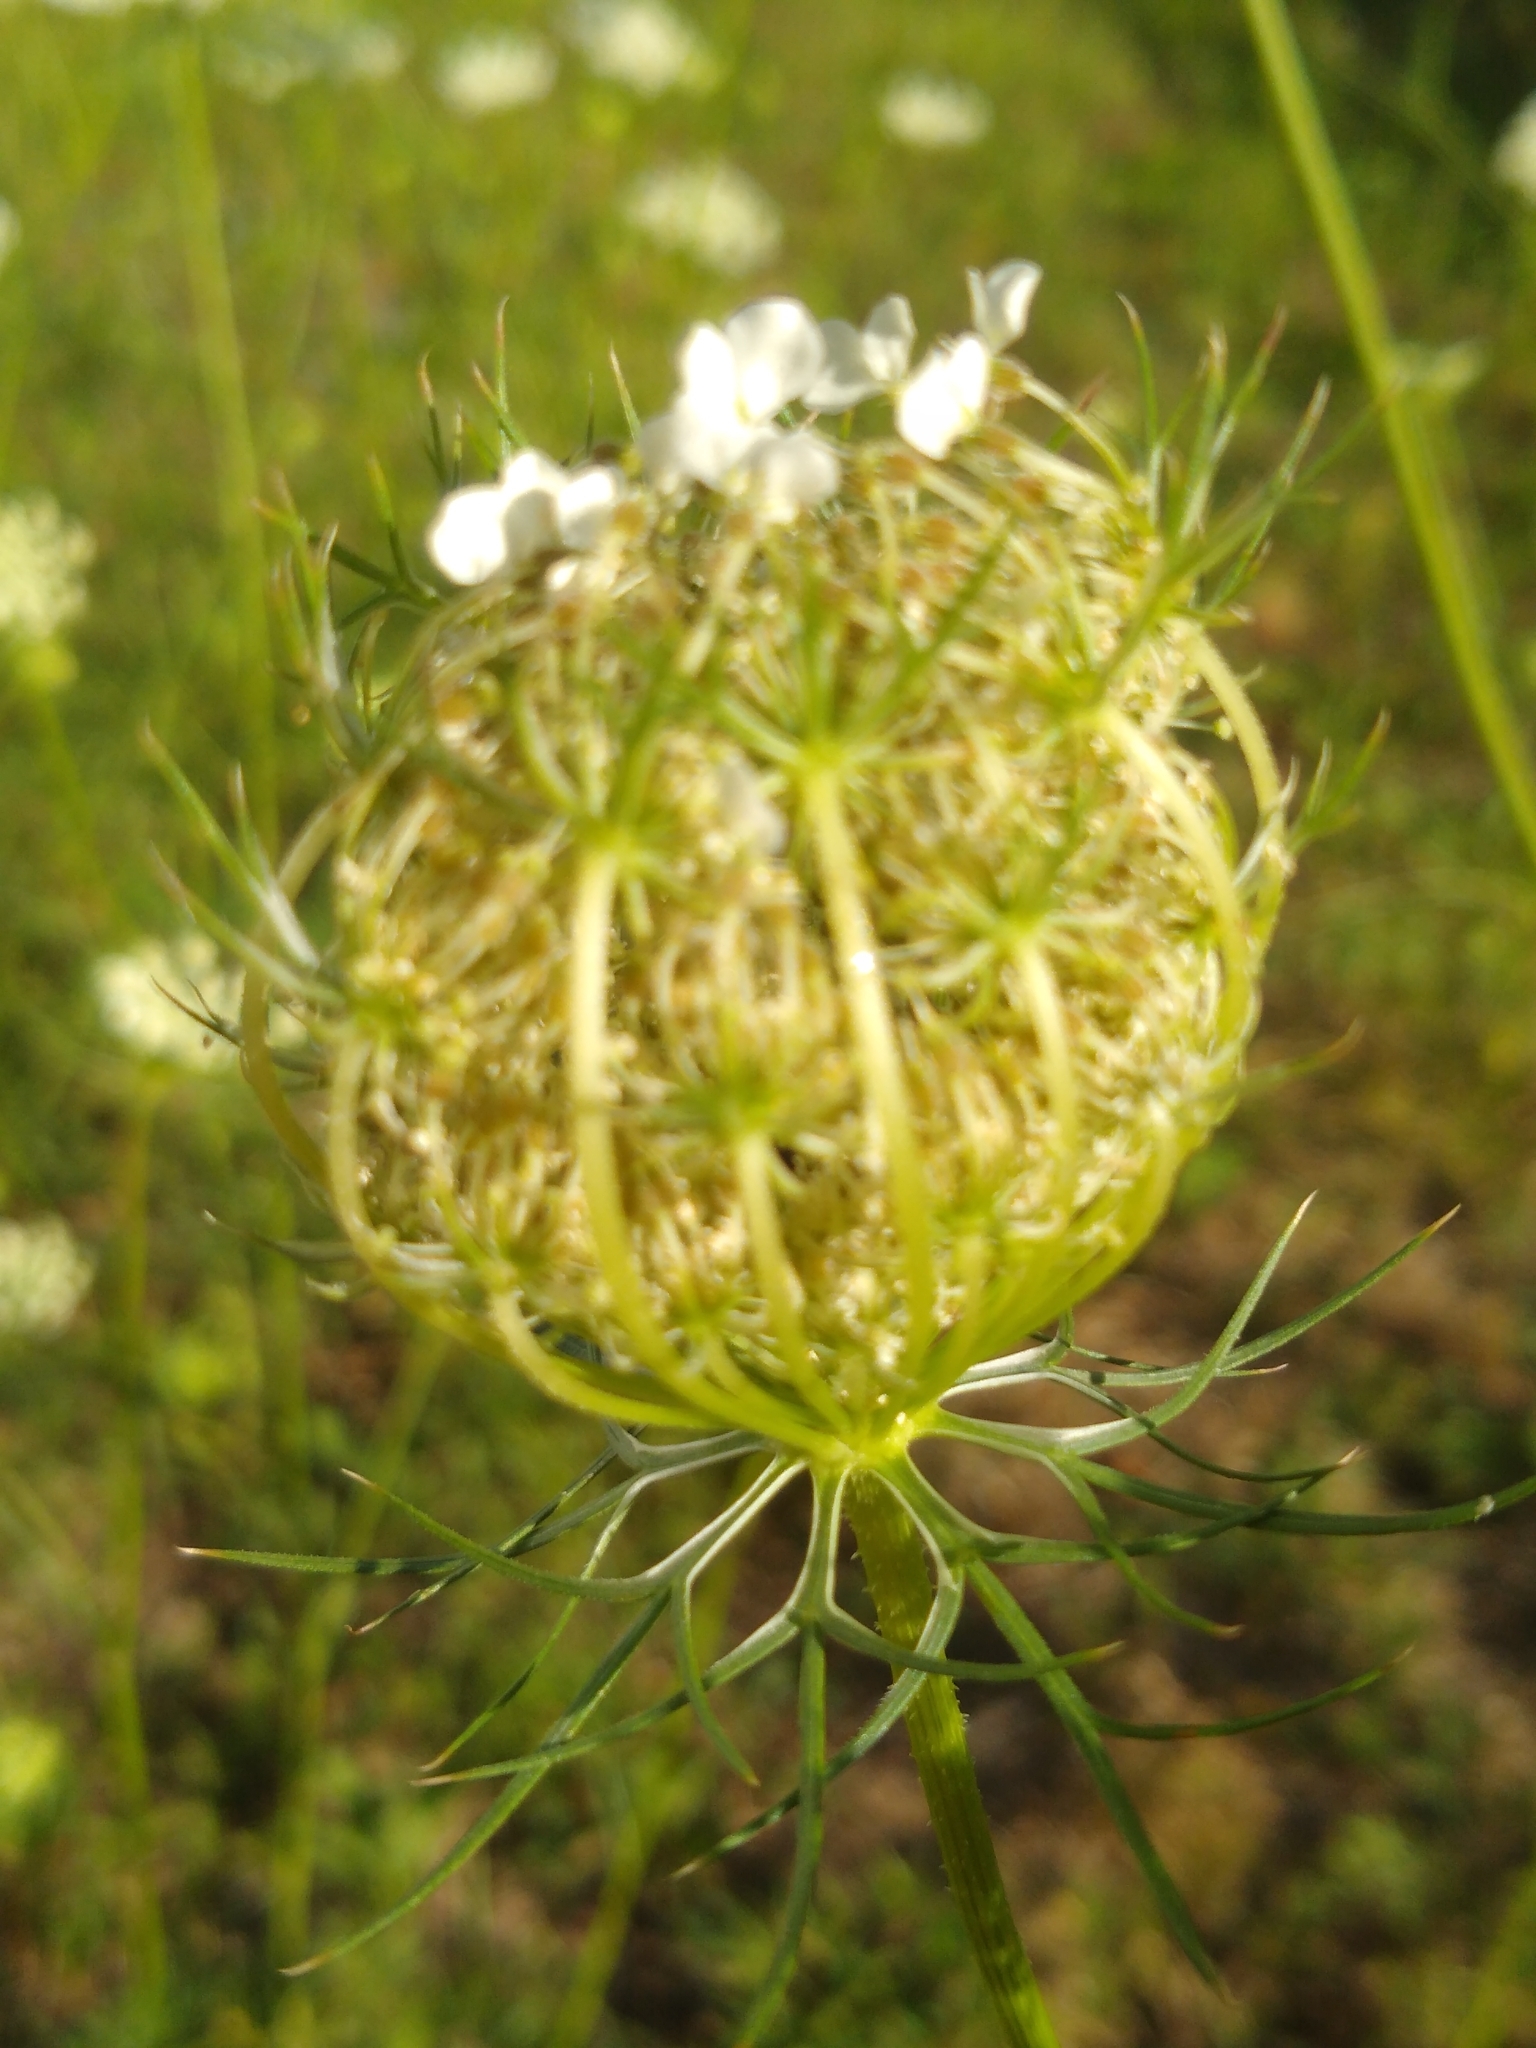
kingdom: Plantae
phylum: Tracheophyta
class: Magnoliopsida
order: Apiales
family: Apiaceae
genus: Daucus
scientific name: Daucus carota
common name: Wild carrot
